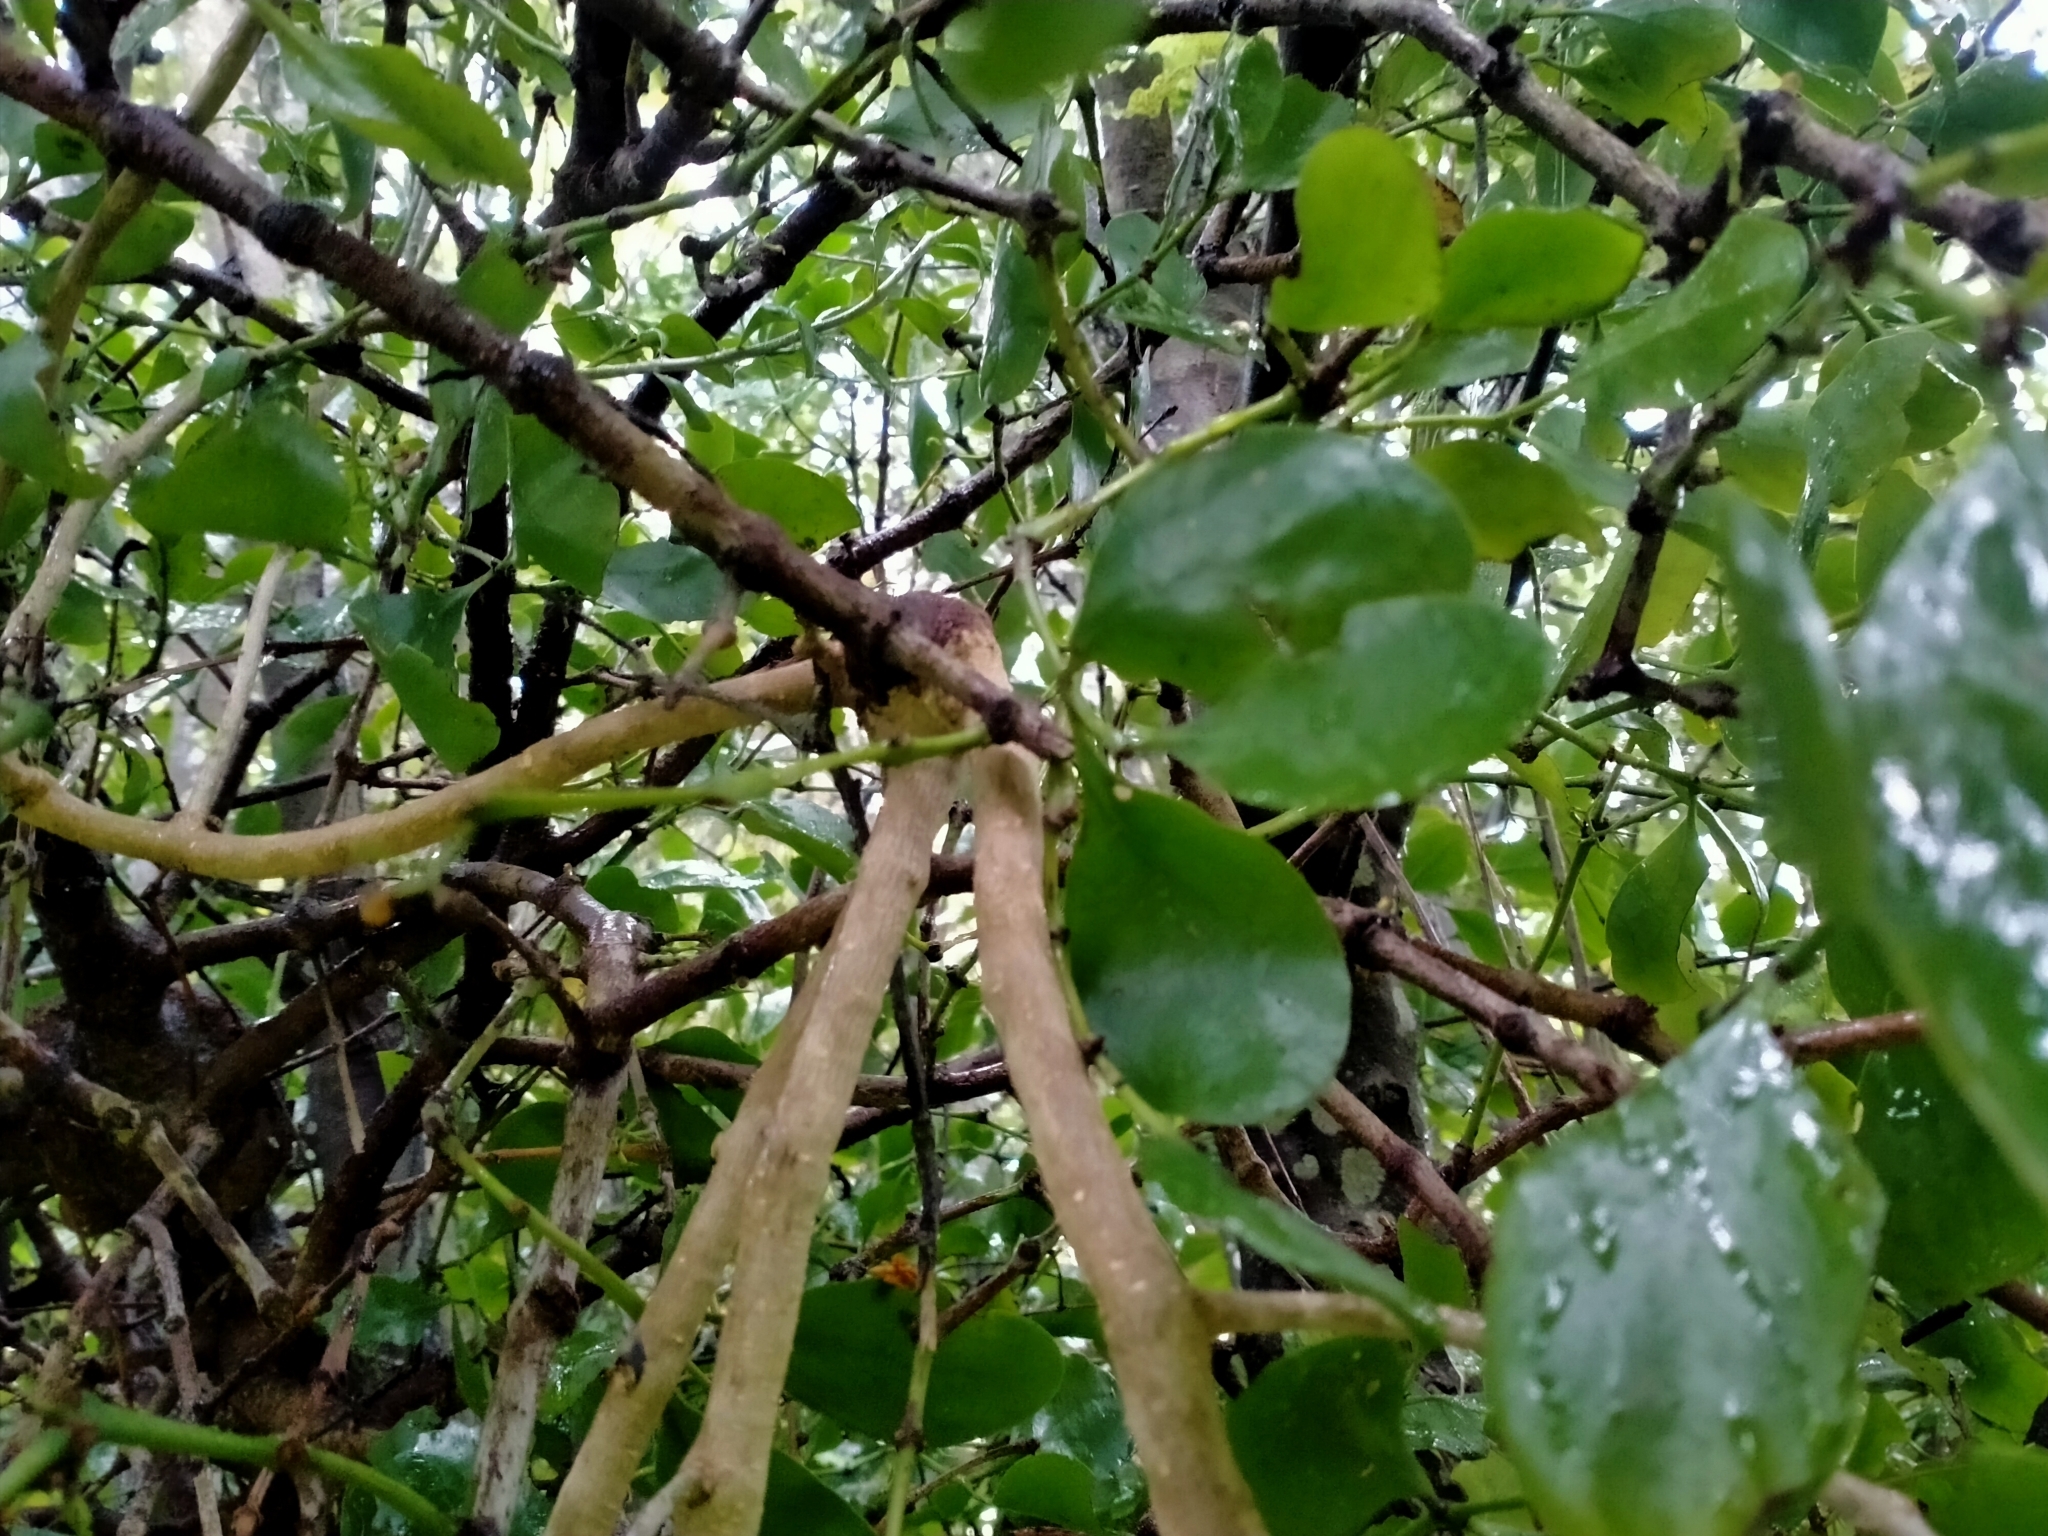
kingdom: Plantae
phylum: Tracheophyta
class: Magnoliopsida
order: Santalales
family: Loranthaceae
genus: Tupeia
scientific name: Tupeia antarctica
